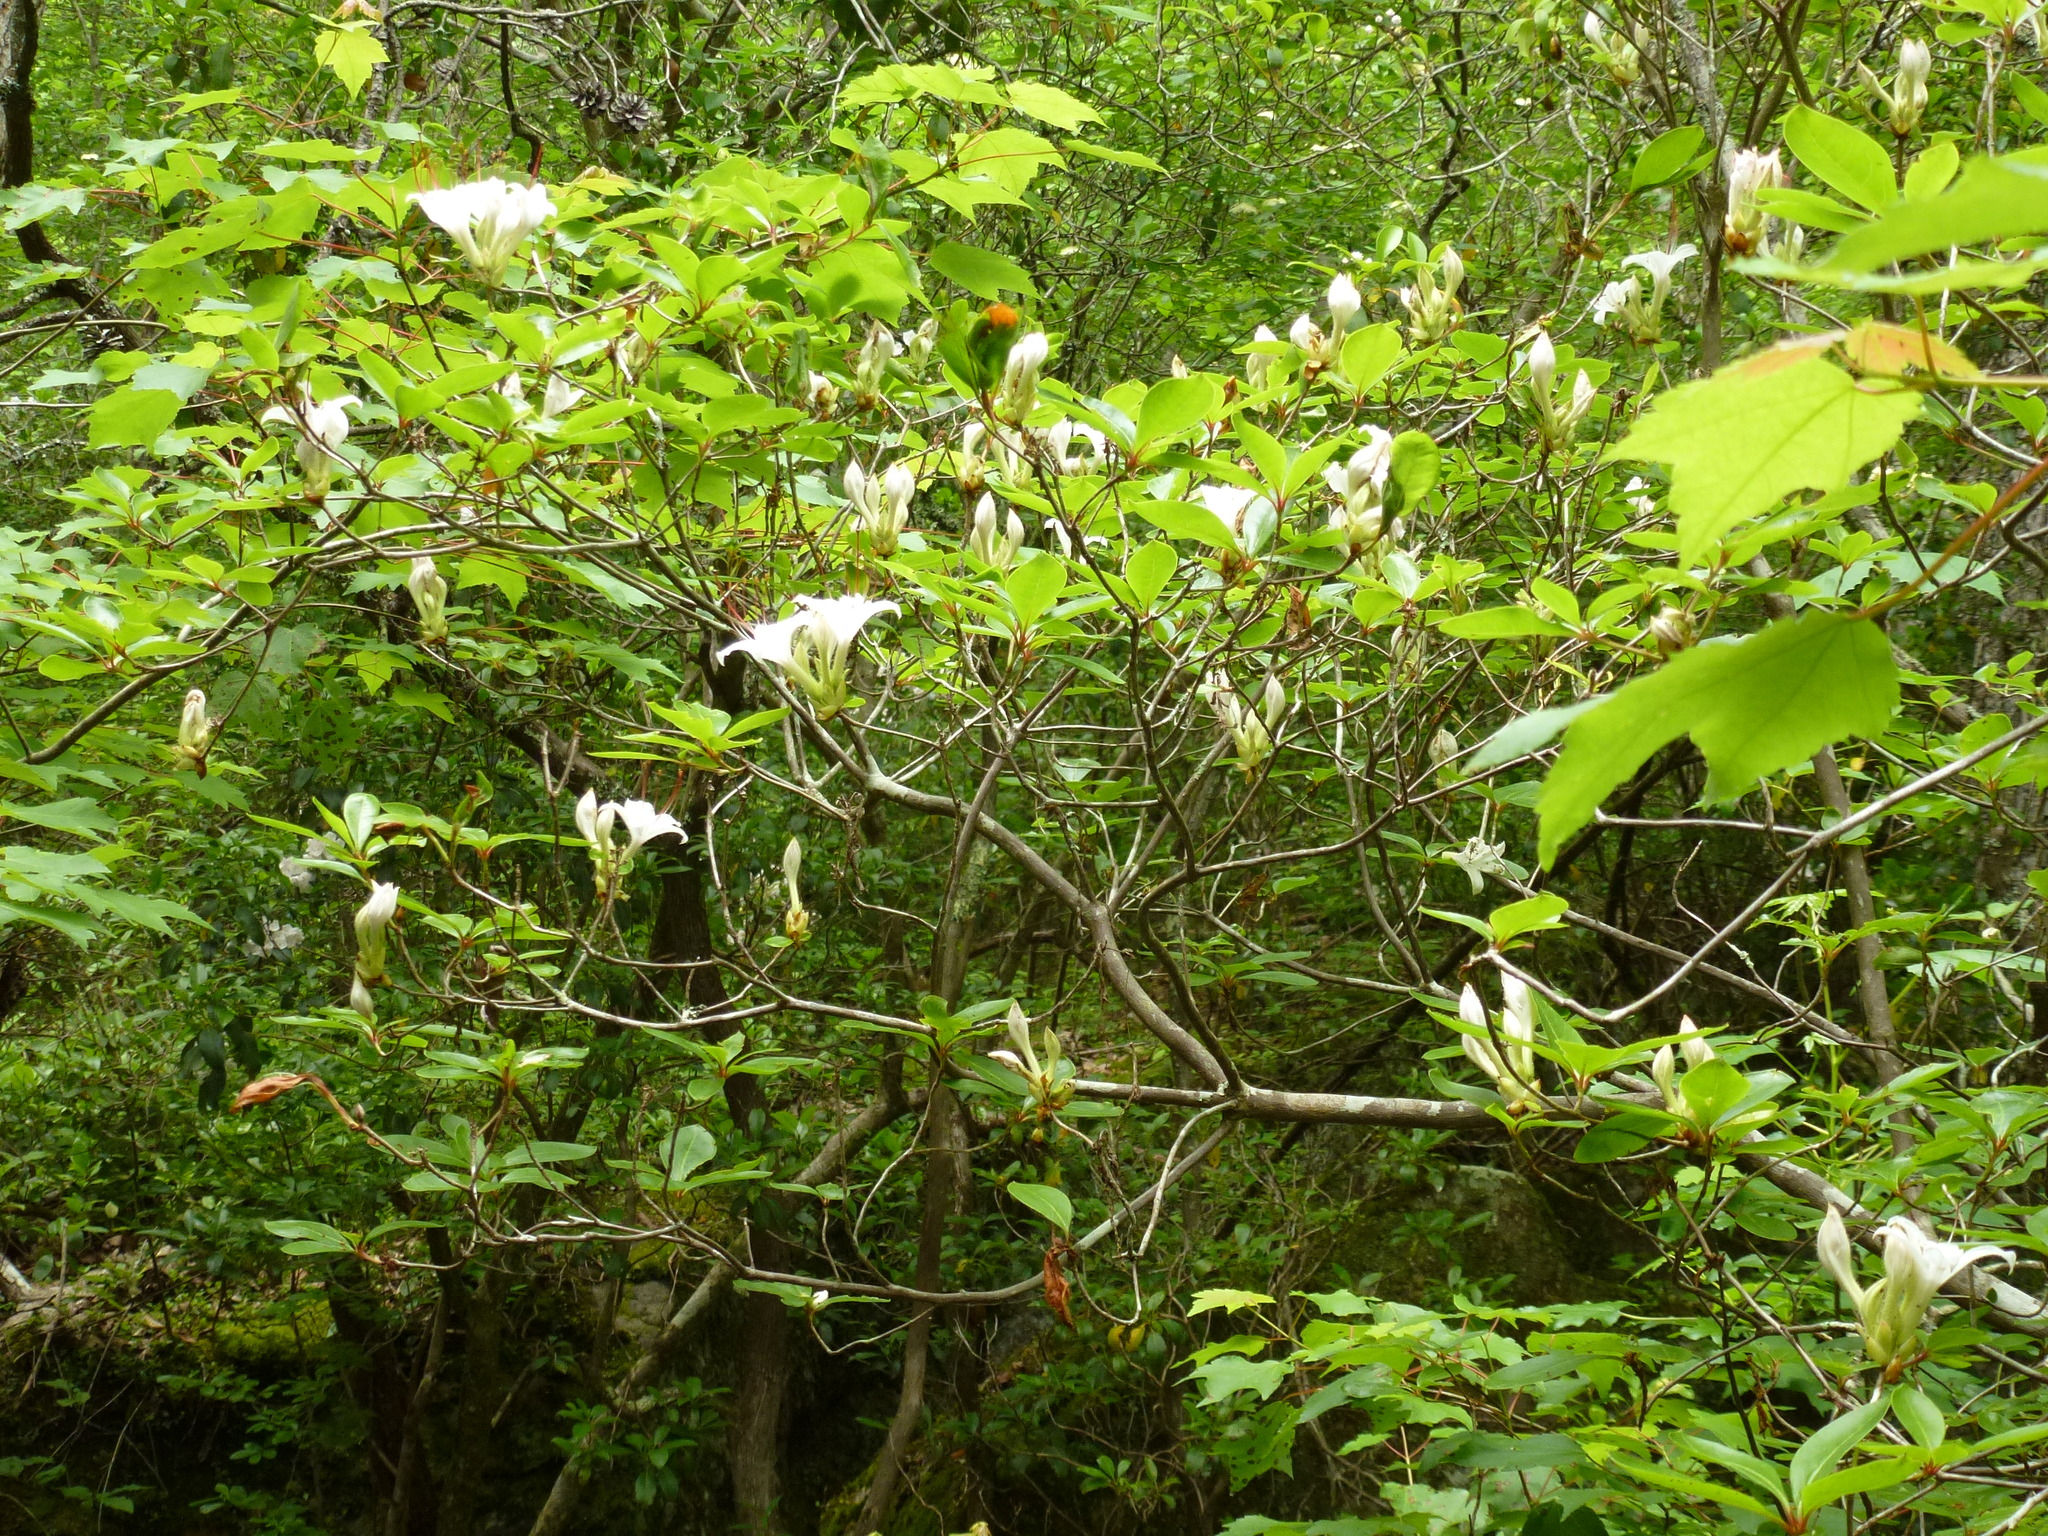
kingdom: Plantae
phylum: Tracheophyta
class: Magnoliopsida
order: Ericales
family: Ericaceae
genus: Rhododendron
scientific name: Rhododendron arborescens
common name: Sweet azalea
